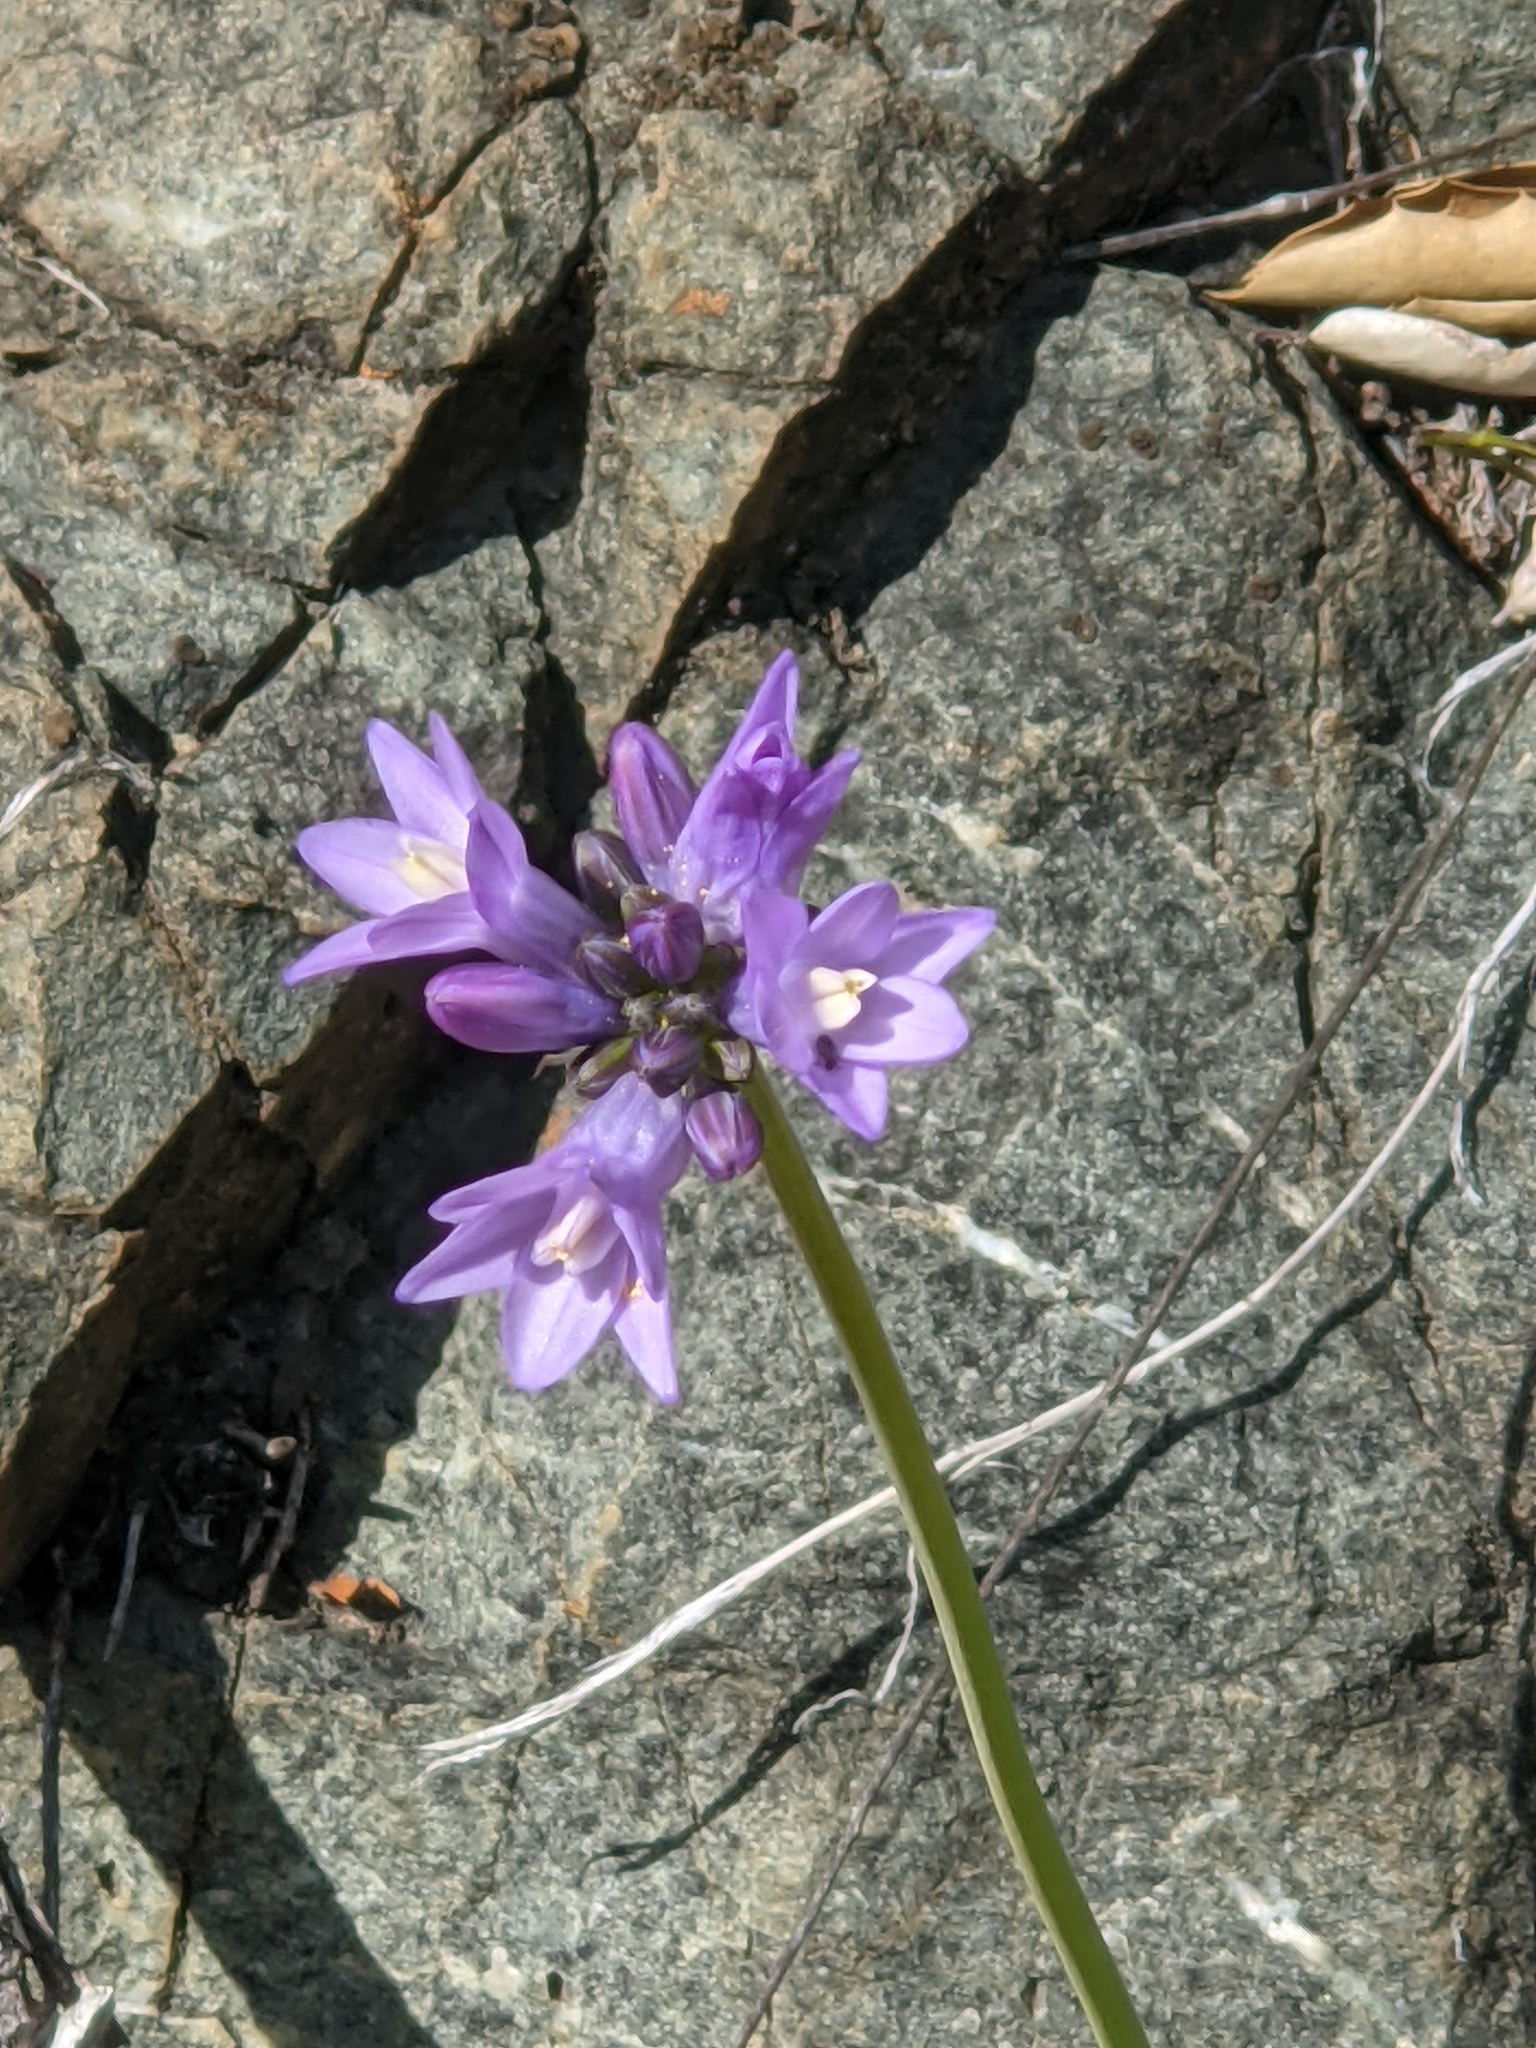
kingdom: Plantae
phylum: Tracheophyta
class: Liliopsida
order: Asparagales
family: Asparagaceae
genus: Dipterostemon
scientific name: Dipterostemon capitatus
